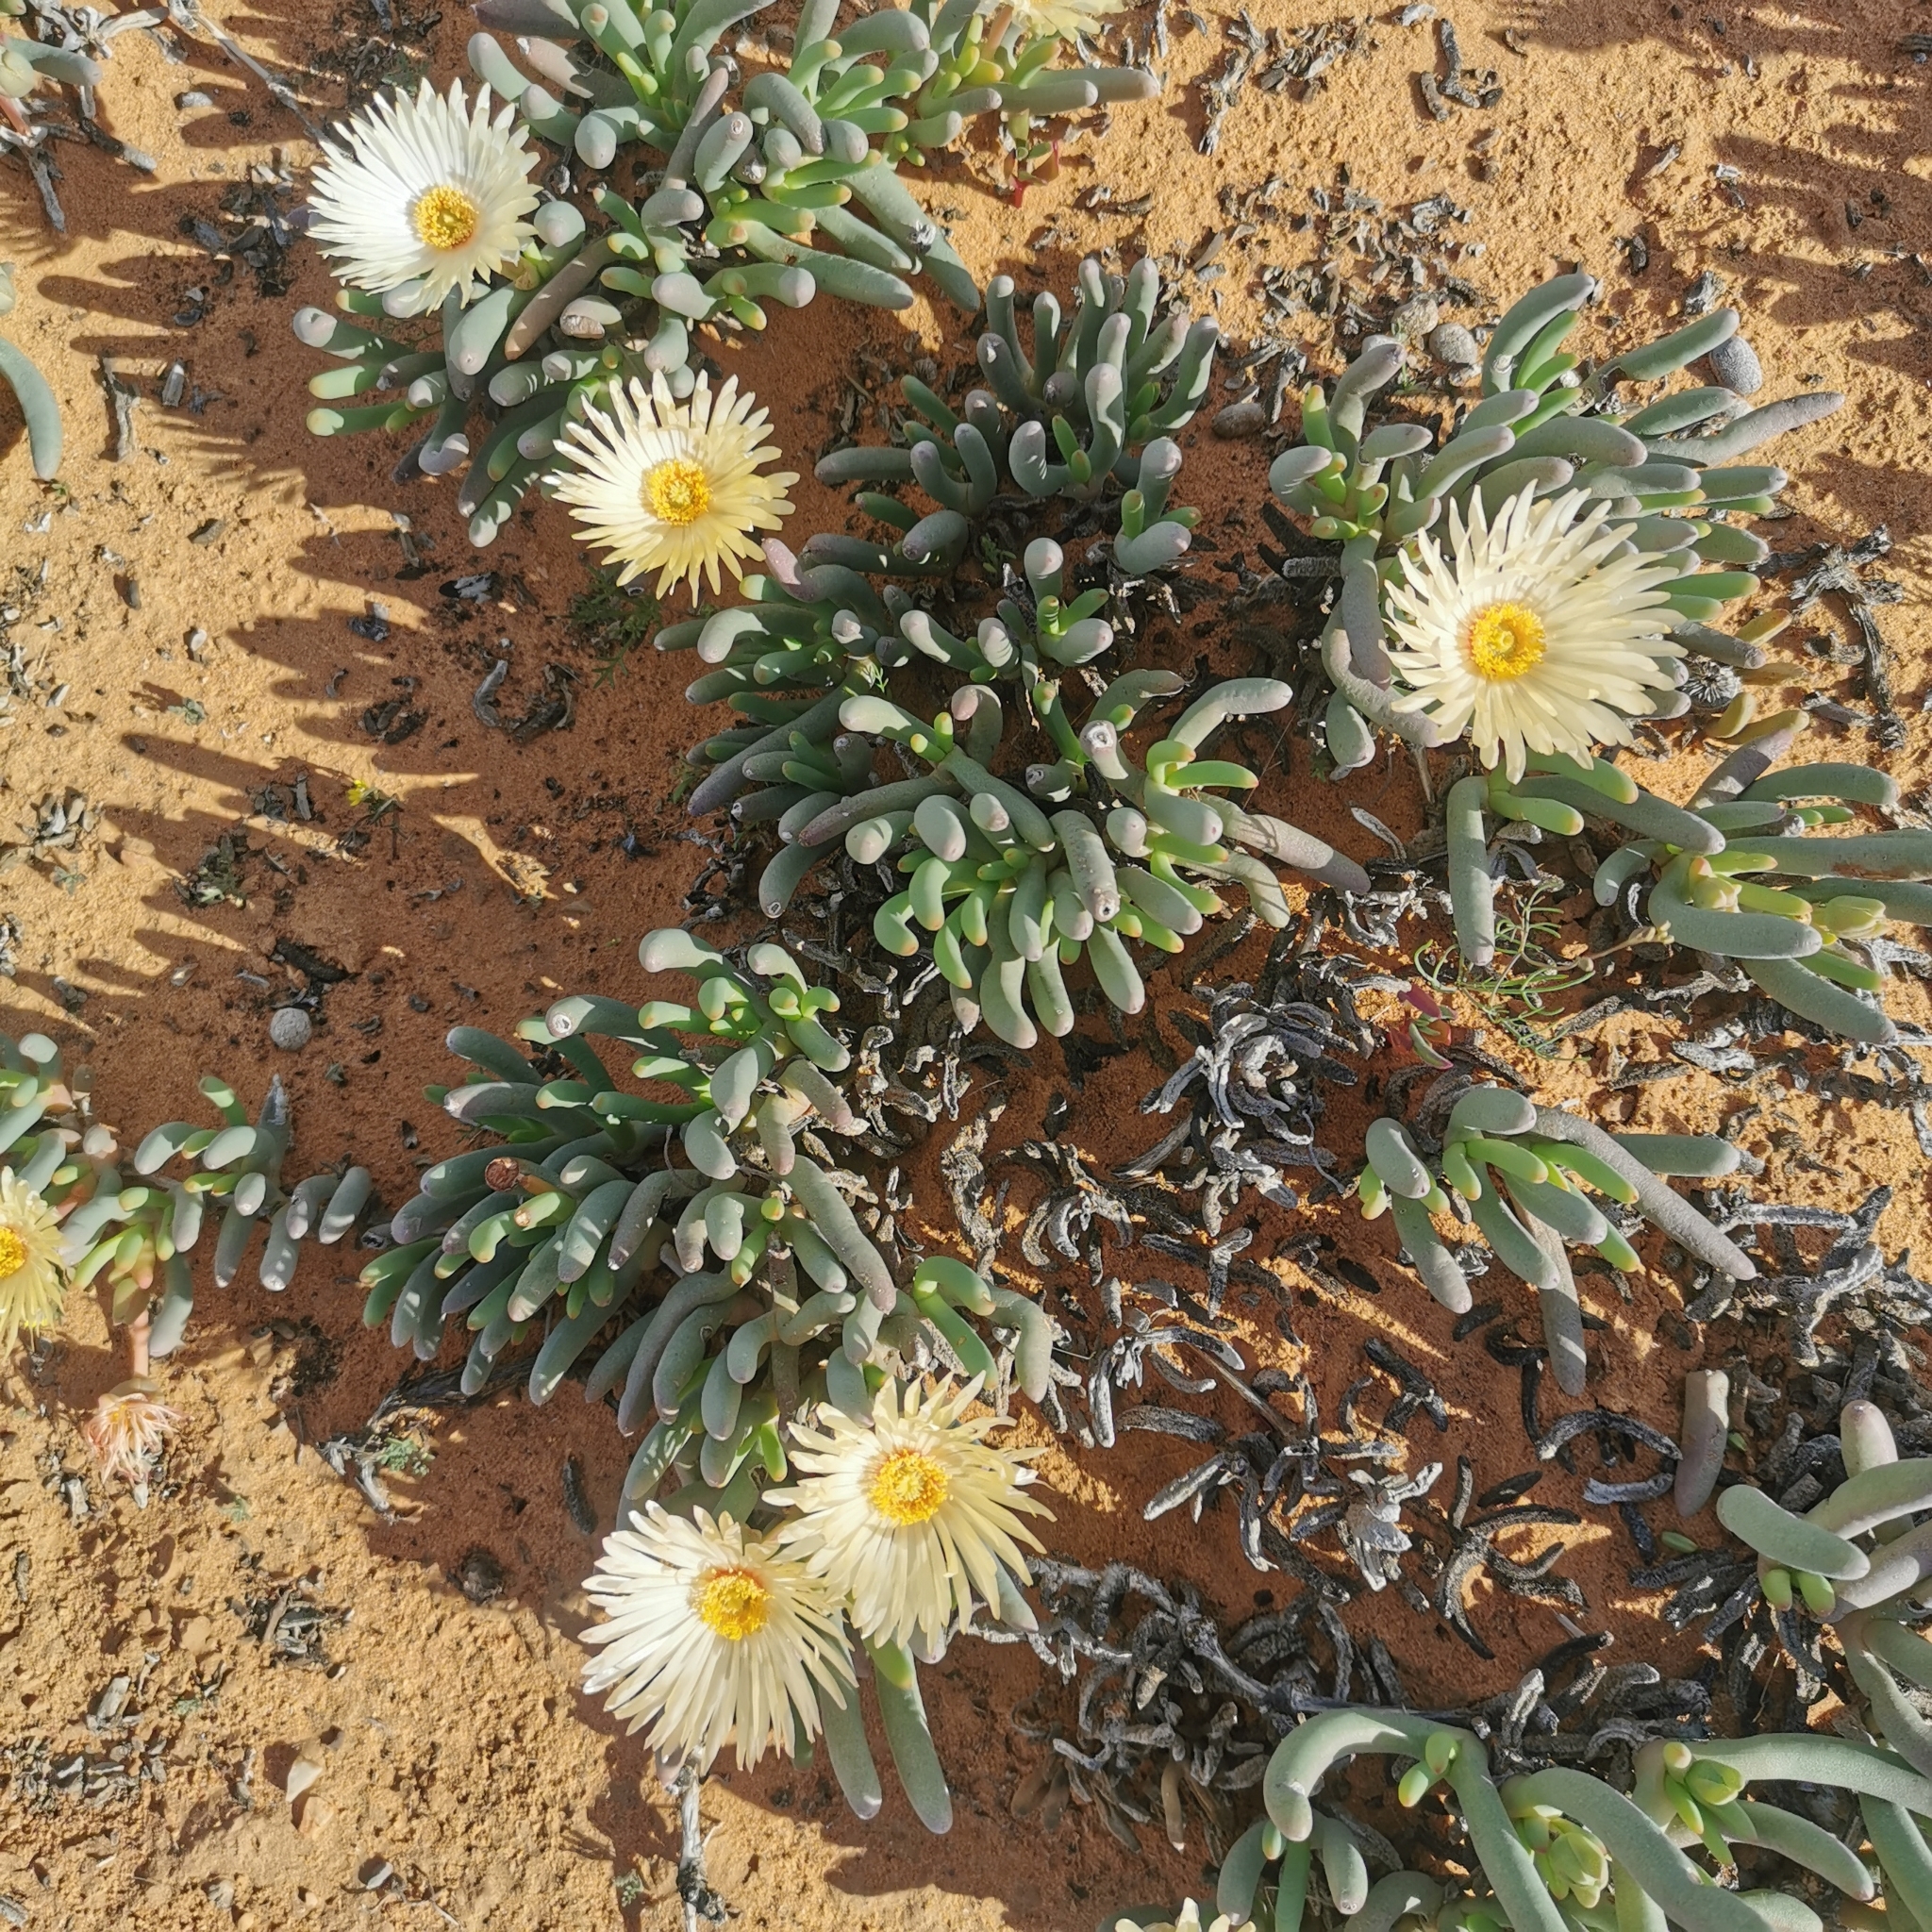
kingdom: Plantae
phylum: Tracheophyta
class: Magnoliopsida
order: Caryophyllales
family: Aizoaceae
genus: Cephalophyllum
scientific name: Cephalophyllum loreum
